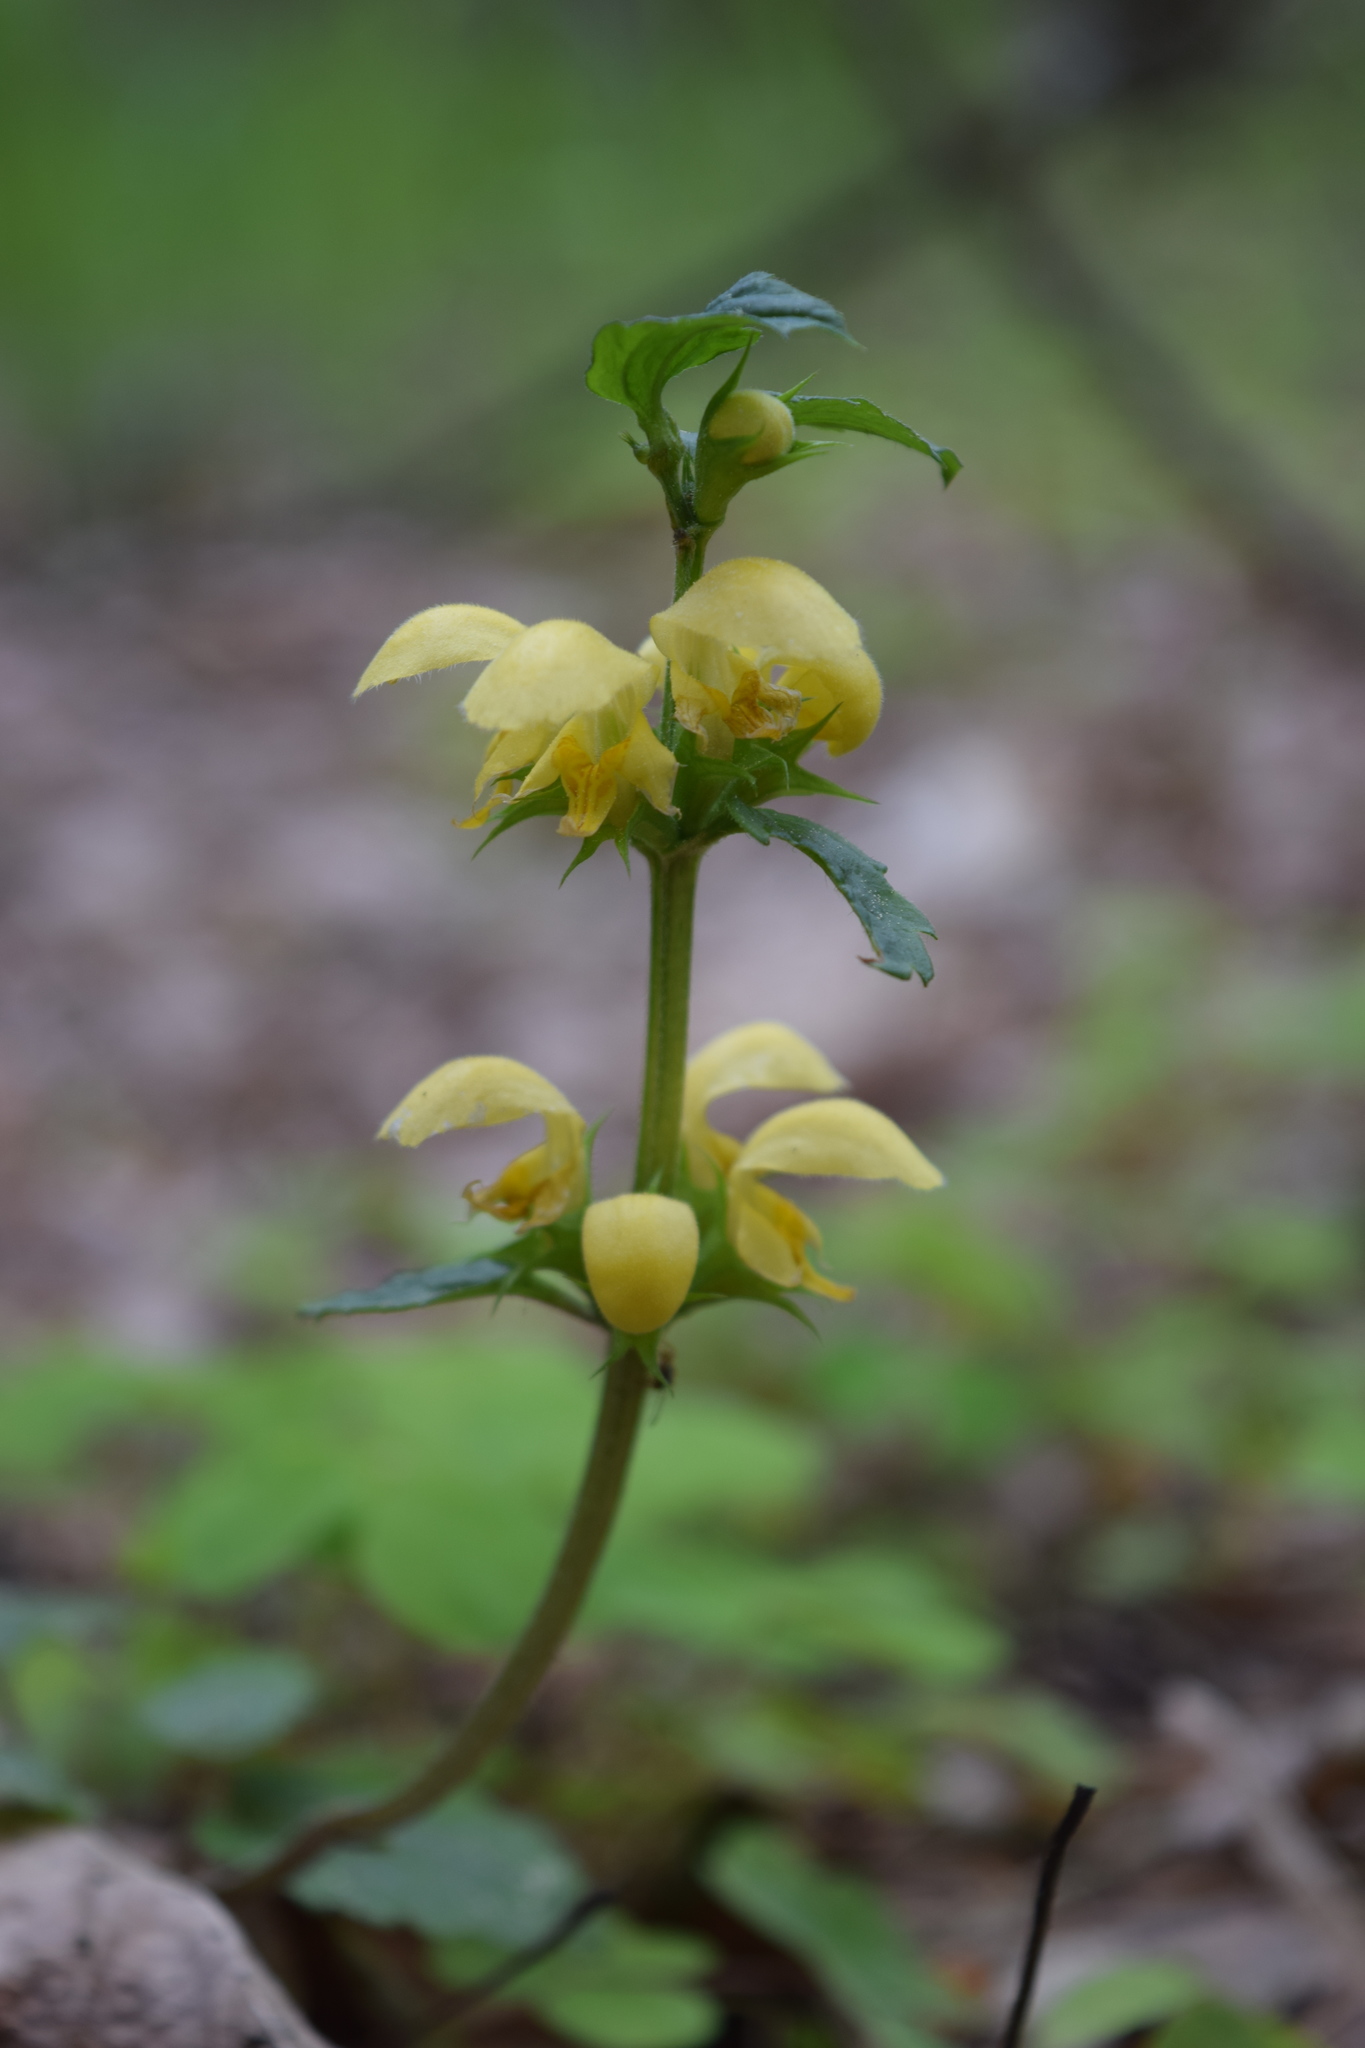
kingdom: Plantae
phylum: Tracheophyta
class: Magnoliopsida
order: Lamiales
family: Lamiaceae
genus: Lamium
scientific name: Lamium galeobdolon
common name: Yellow archangel
